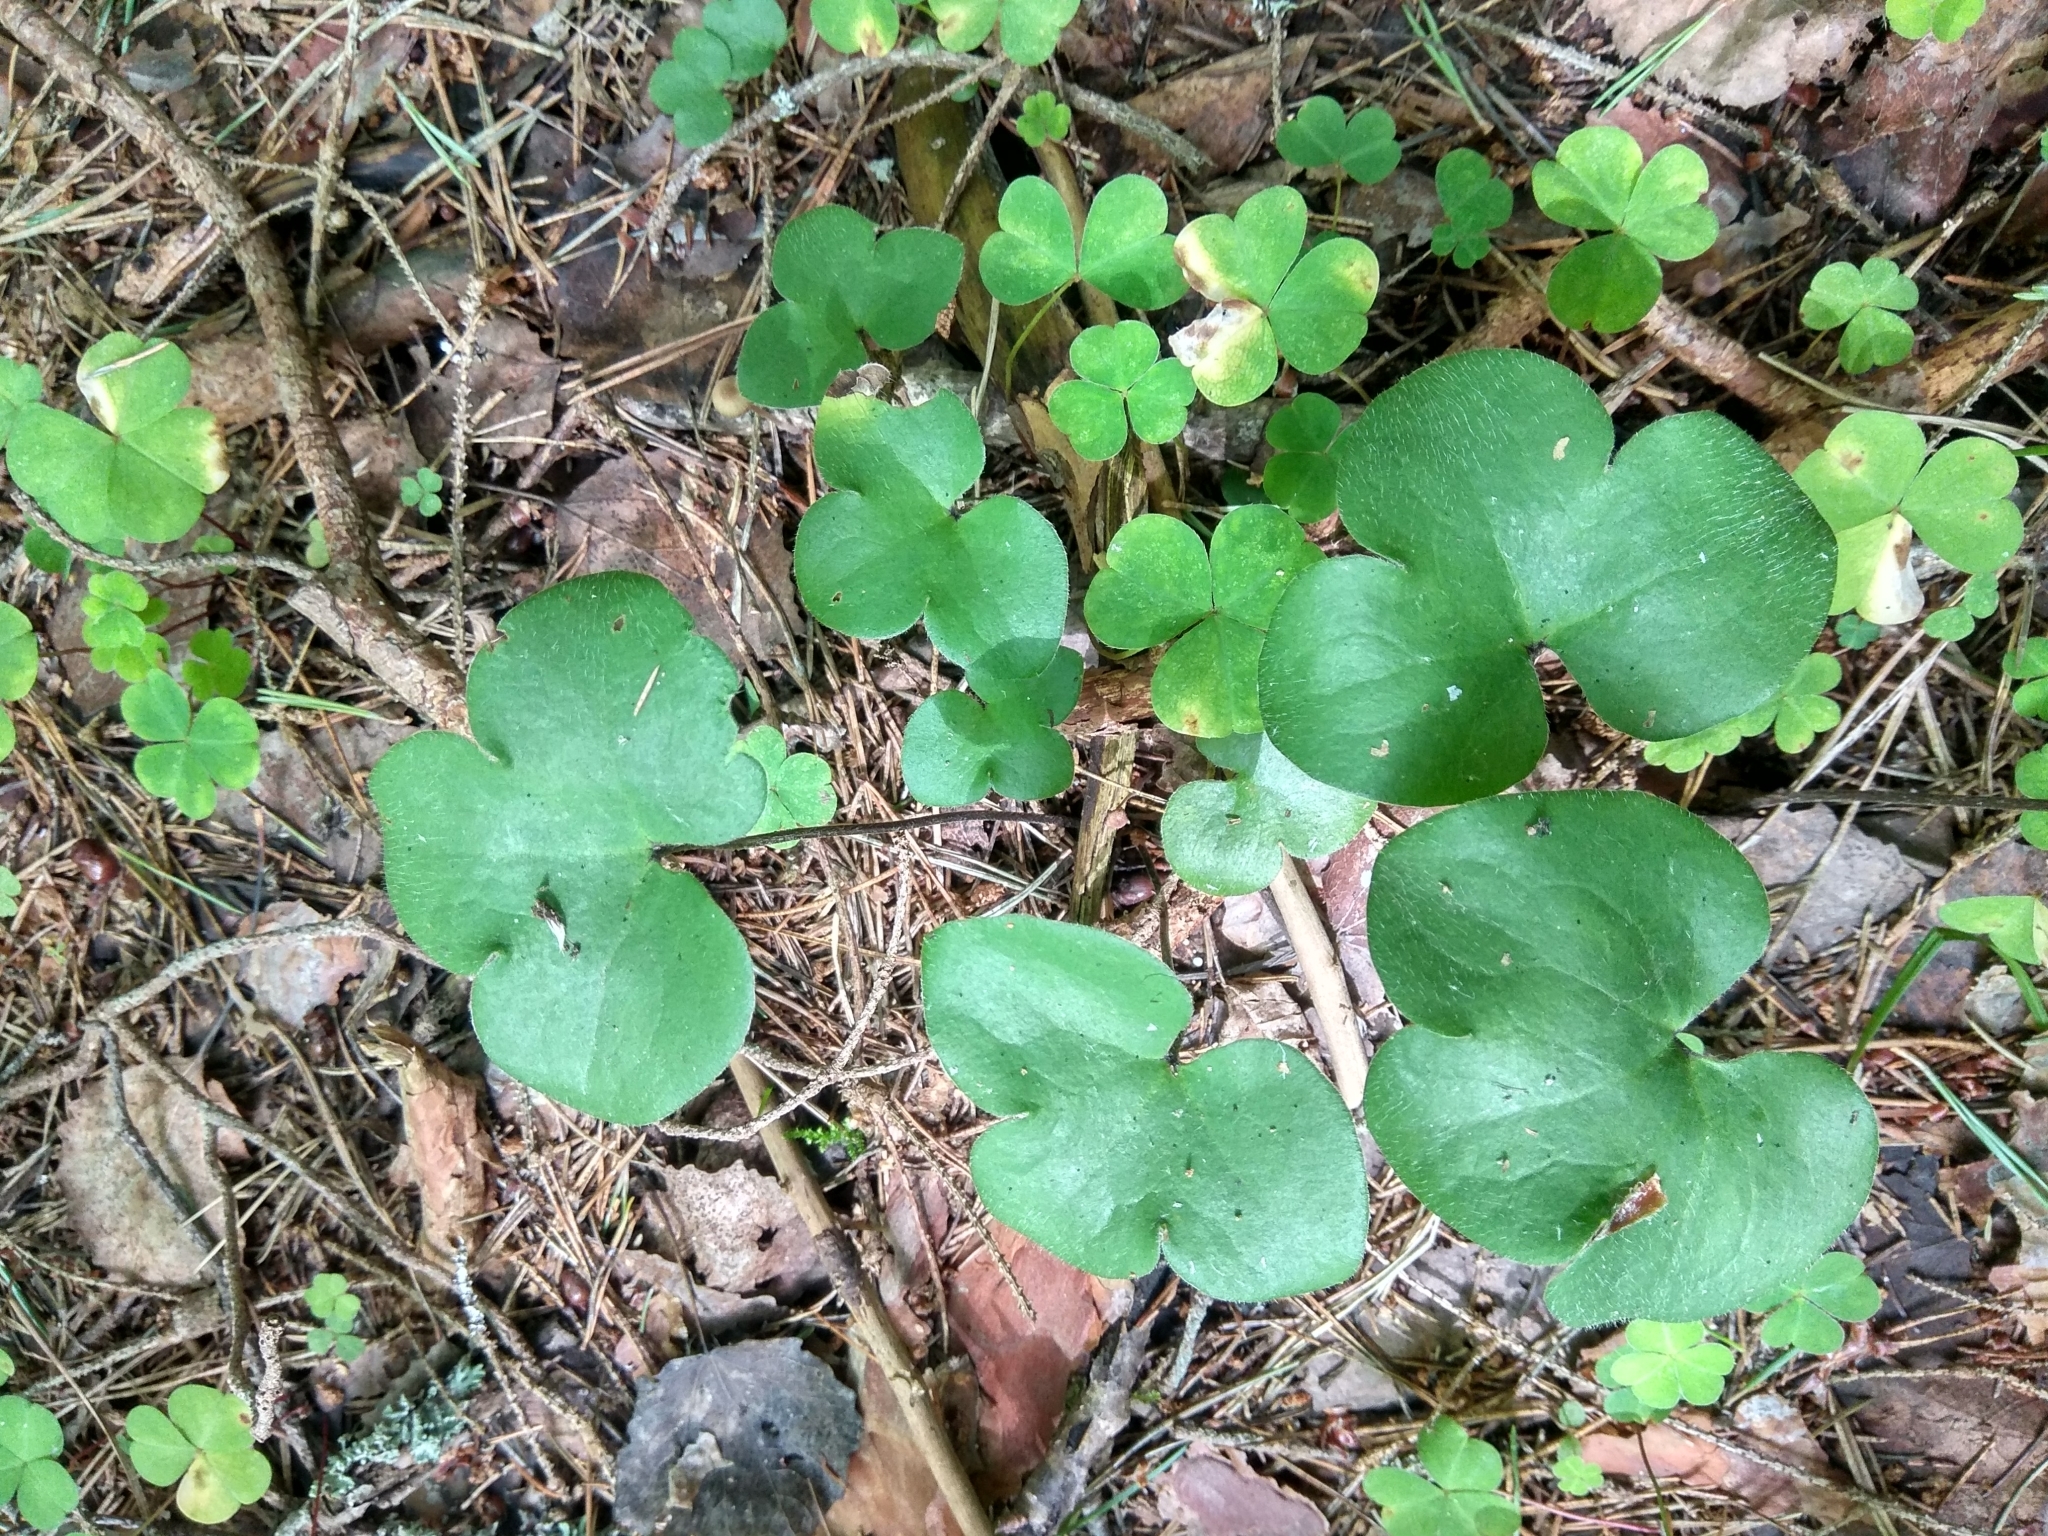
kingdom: Plantae
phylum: Tracheophyta
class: Magnoliopsida
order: Ranunculales
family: Ranunculaceae
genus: Hepatica
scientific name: Hepatica nobilis
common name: Liverleaf
